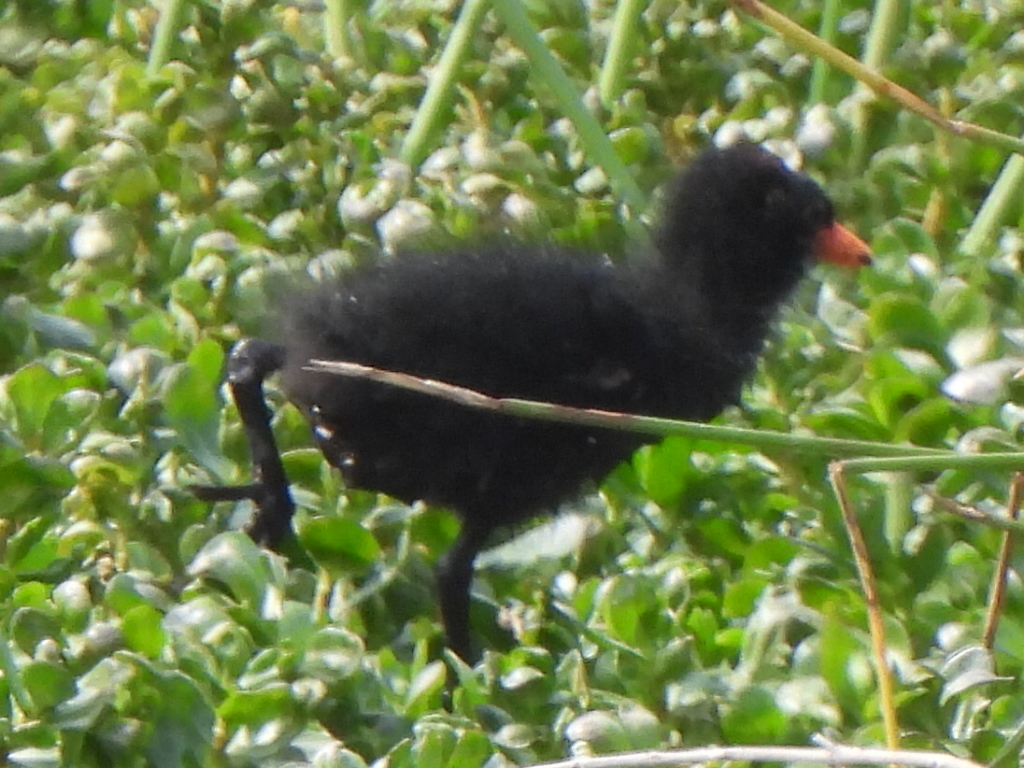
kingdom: Animalia
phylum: Chordata
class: Aves
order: Gruiformes
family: Rallidae
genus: Gallinula
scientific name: Gallinula chloropus
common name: Common moorhen
